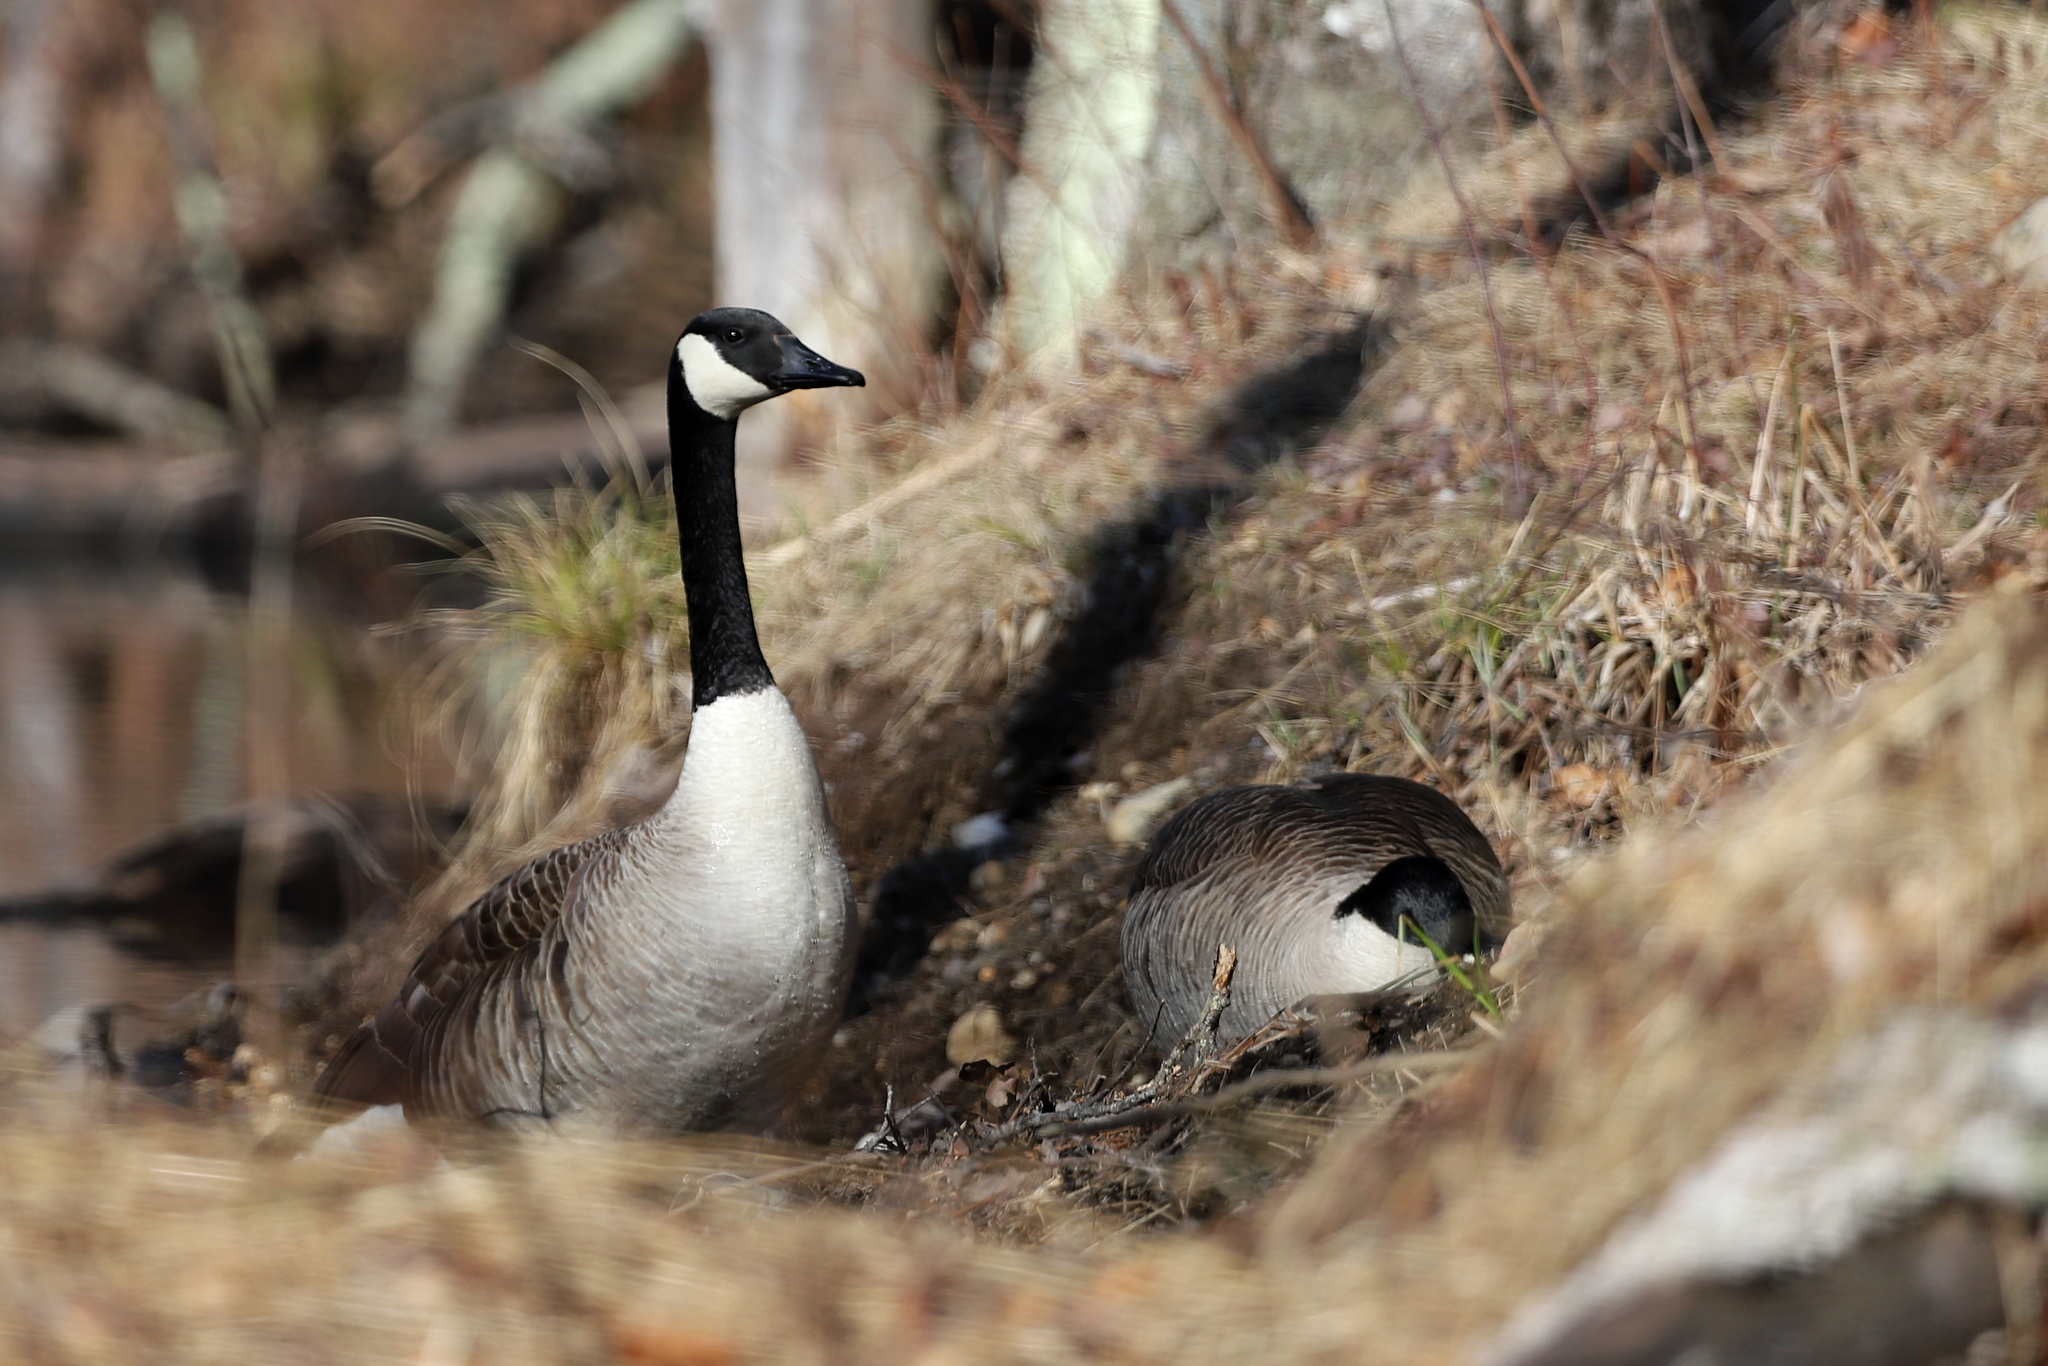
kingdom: Animalia
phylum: Chordata
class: Aves
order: Anseriformes
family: Anatidae
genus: Branta
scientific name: Branta canadensis
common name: Canada goose
